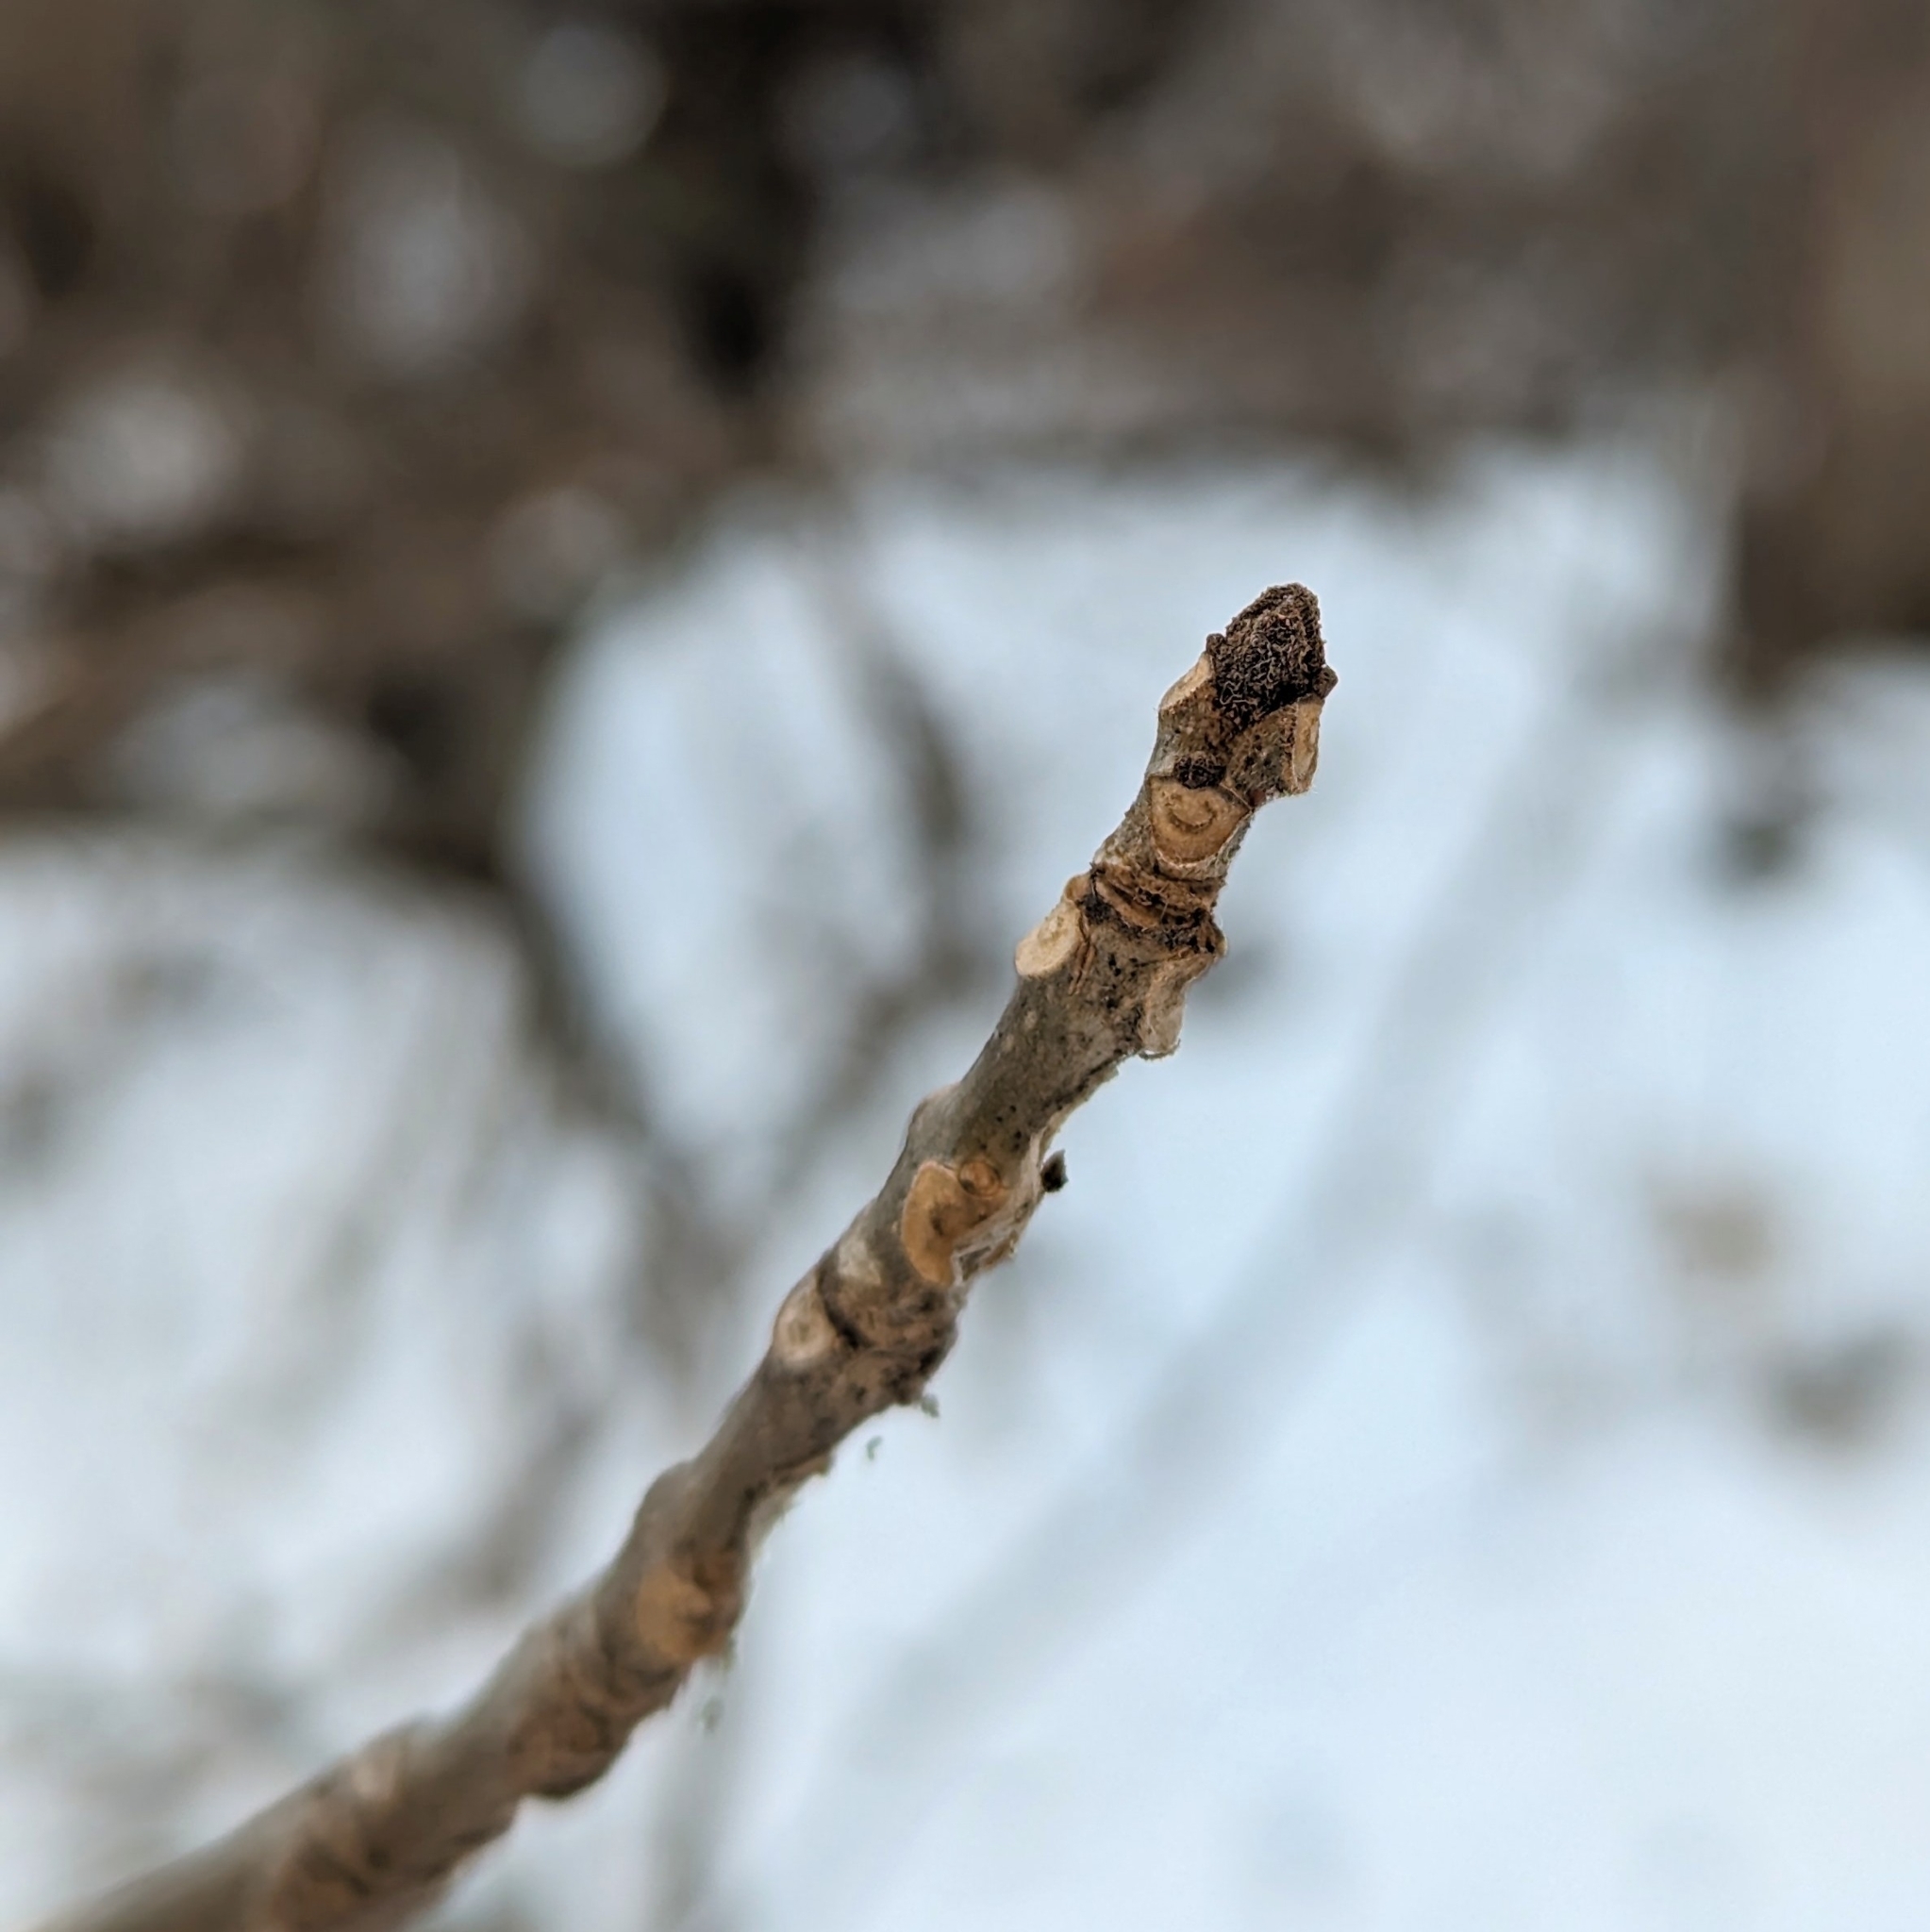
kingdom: Plantae
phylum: Tracheophyta
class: Magnoliopsida
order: Lamiales
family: Oleaceae
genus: Fraxinus
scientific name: Fraxinus pennsylvanica
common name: Green ash
